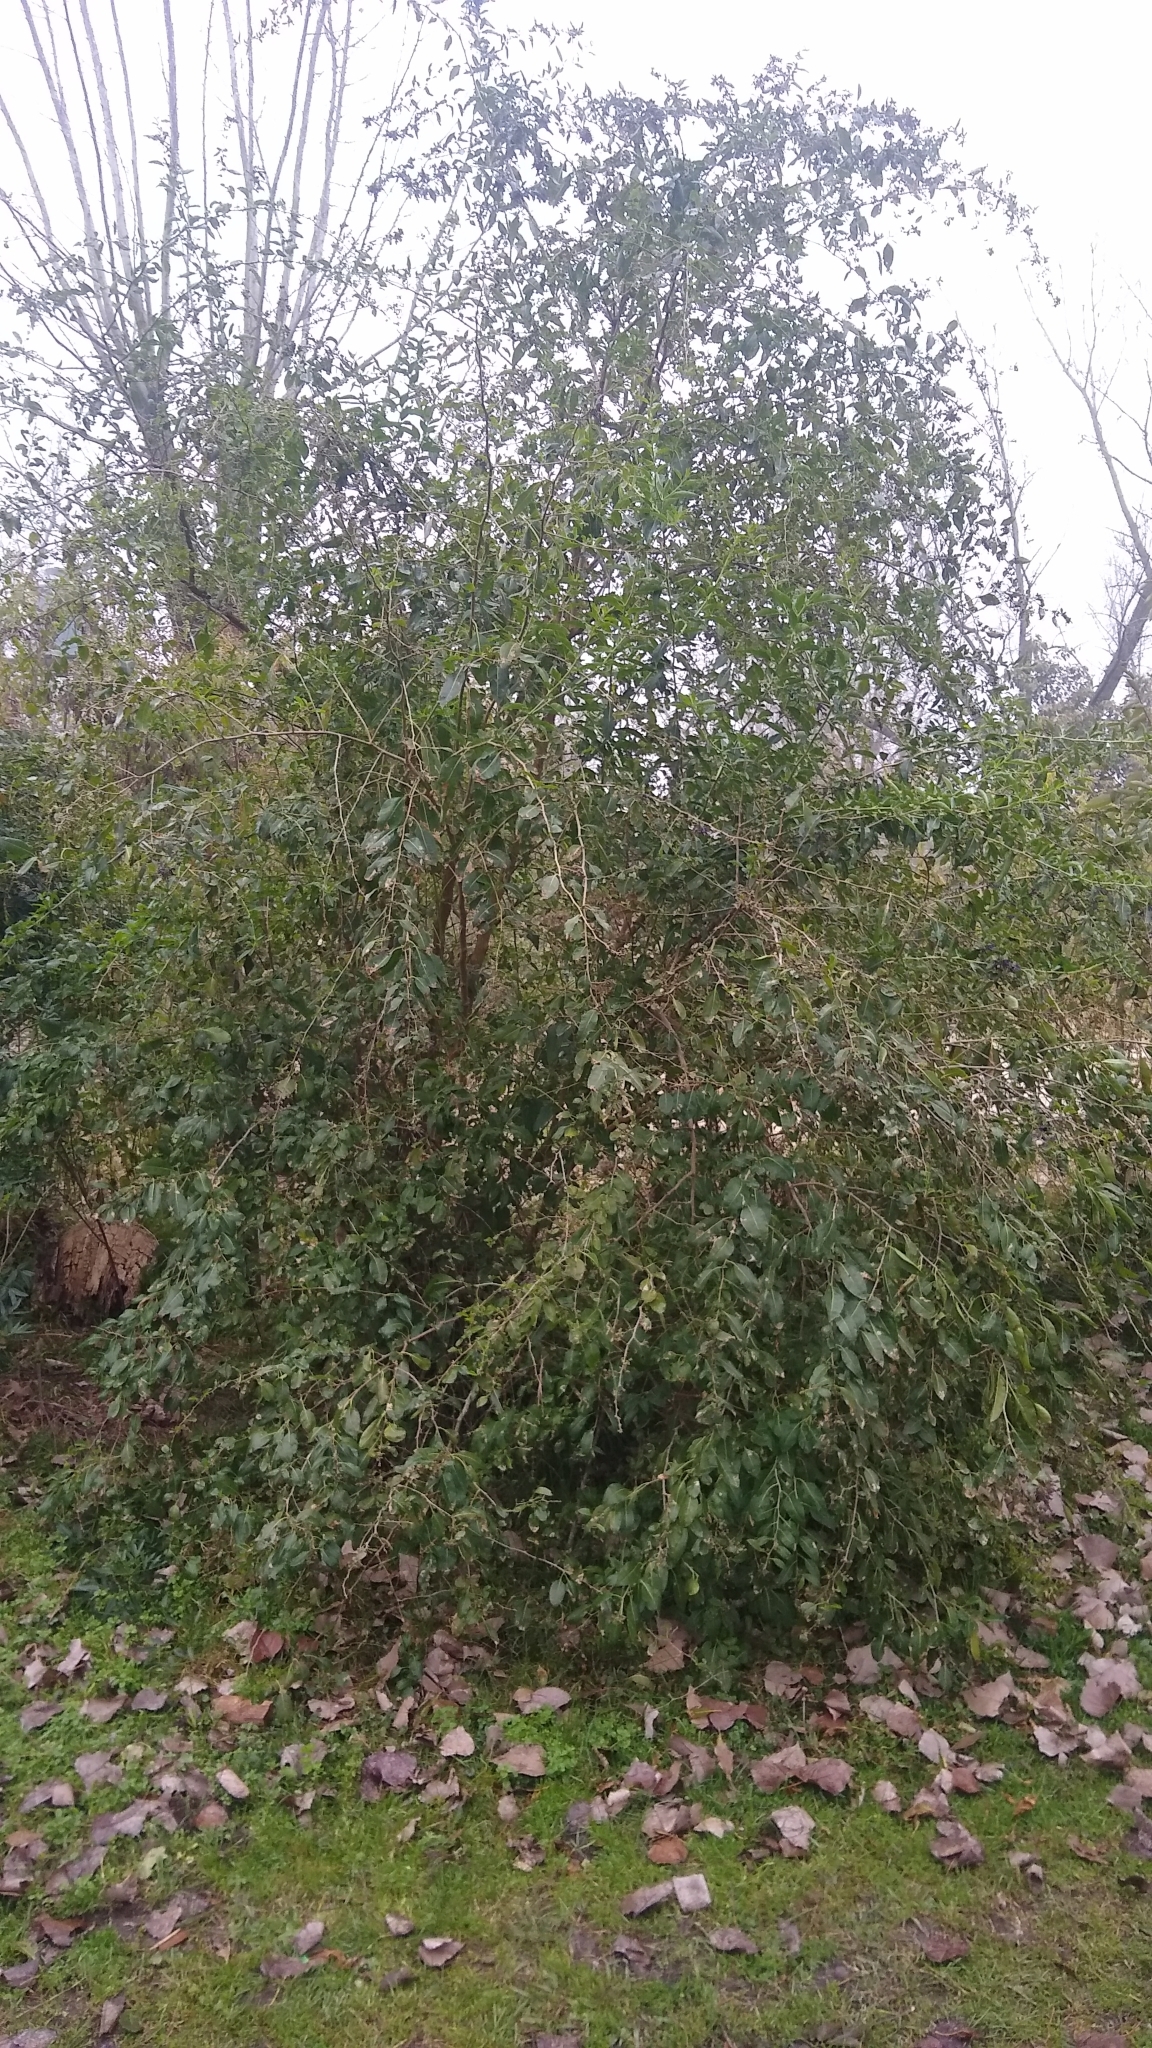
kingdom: Plantae
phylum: Tracheophyta
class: Magnoliopsida
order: Solanales
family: Solanaceae
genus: Lycium
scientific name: Lycium cestroides
